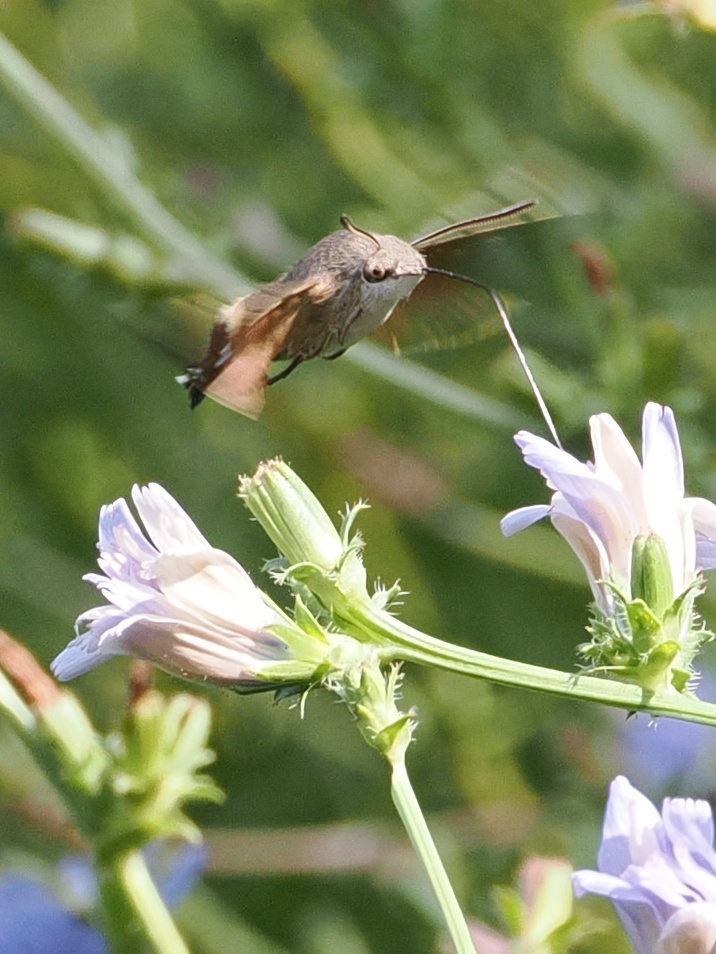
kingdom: Animalia
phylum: Arthropoda
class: Insecta
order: Lepidoptera
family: Sphingidae
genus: Macroglossum
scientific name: Macroglossum stellatarum
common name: Humming-bird hawk-moth
